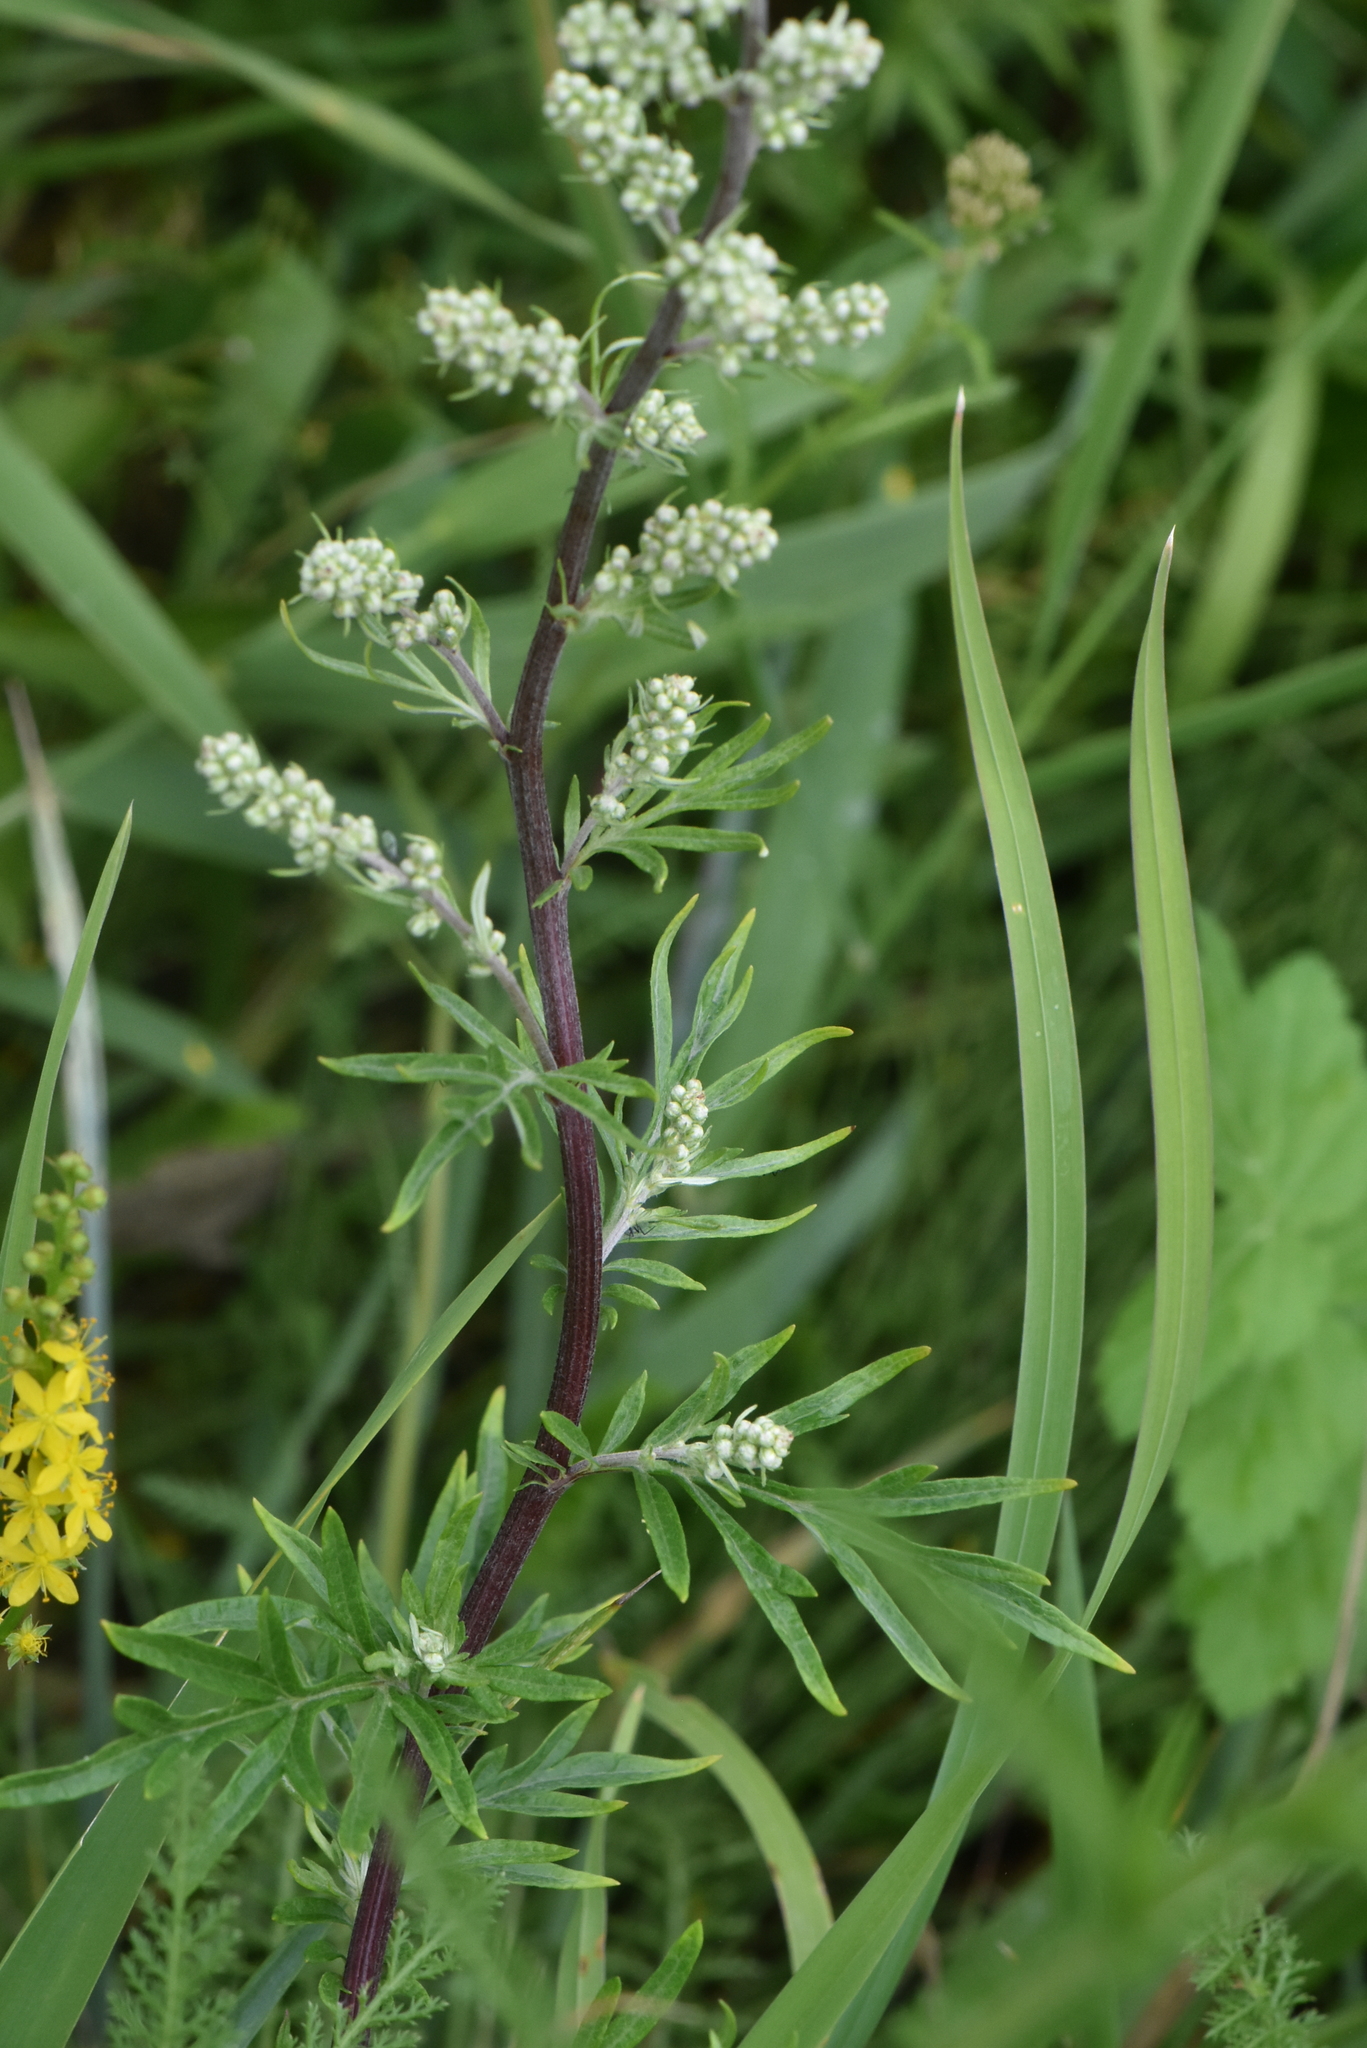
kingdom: Plantae
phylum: Tracheophyta
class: Magnoliopsida
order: Asterales
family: Asteraceae
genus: Artemisia
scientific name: Artemisia vulgaris
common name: Mugwort
